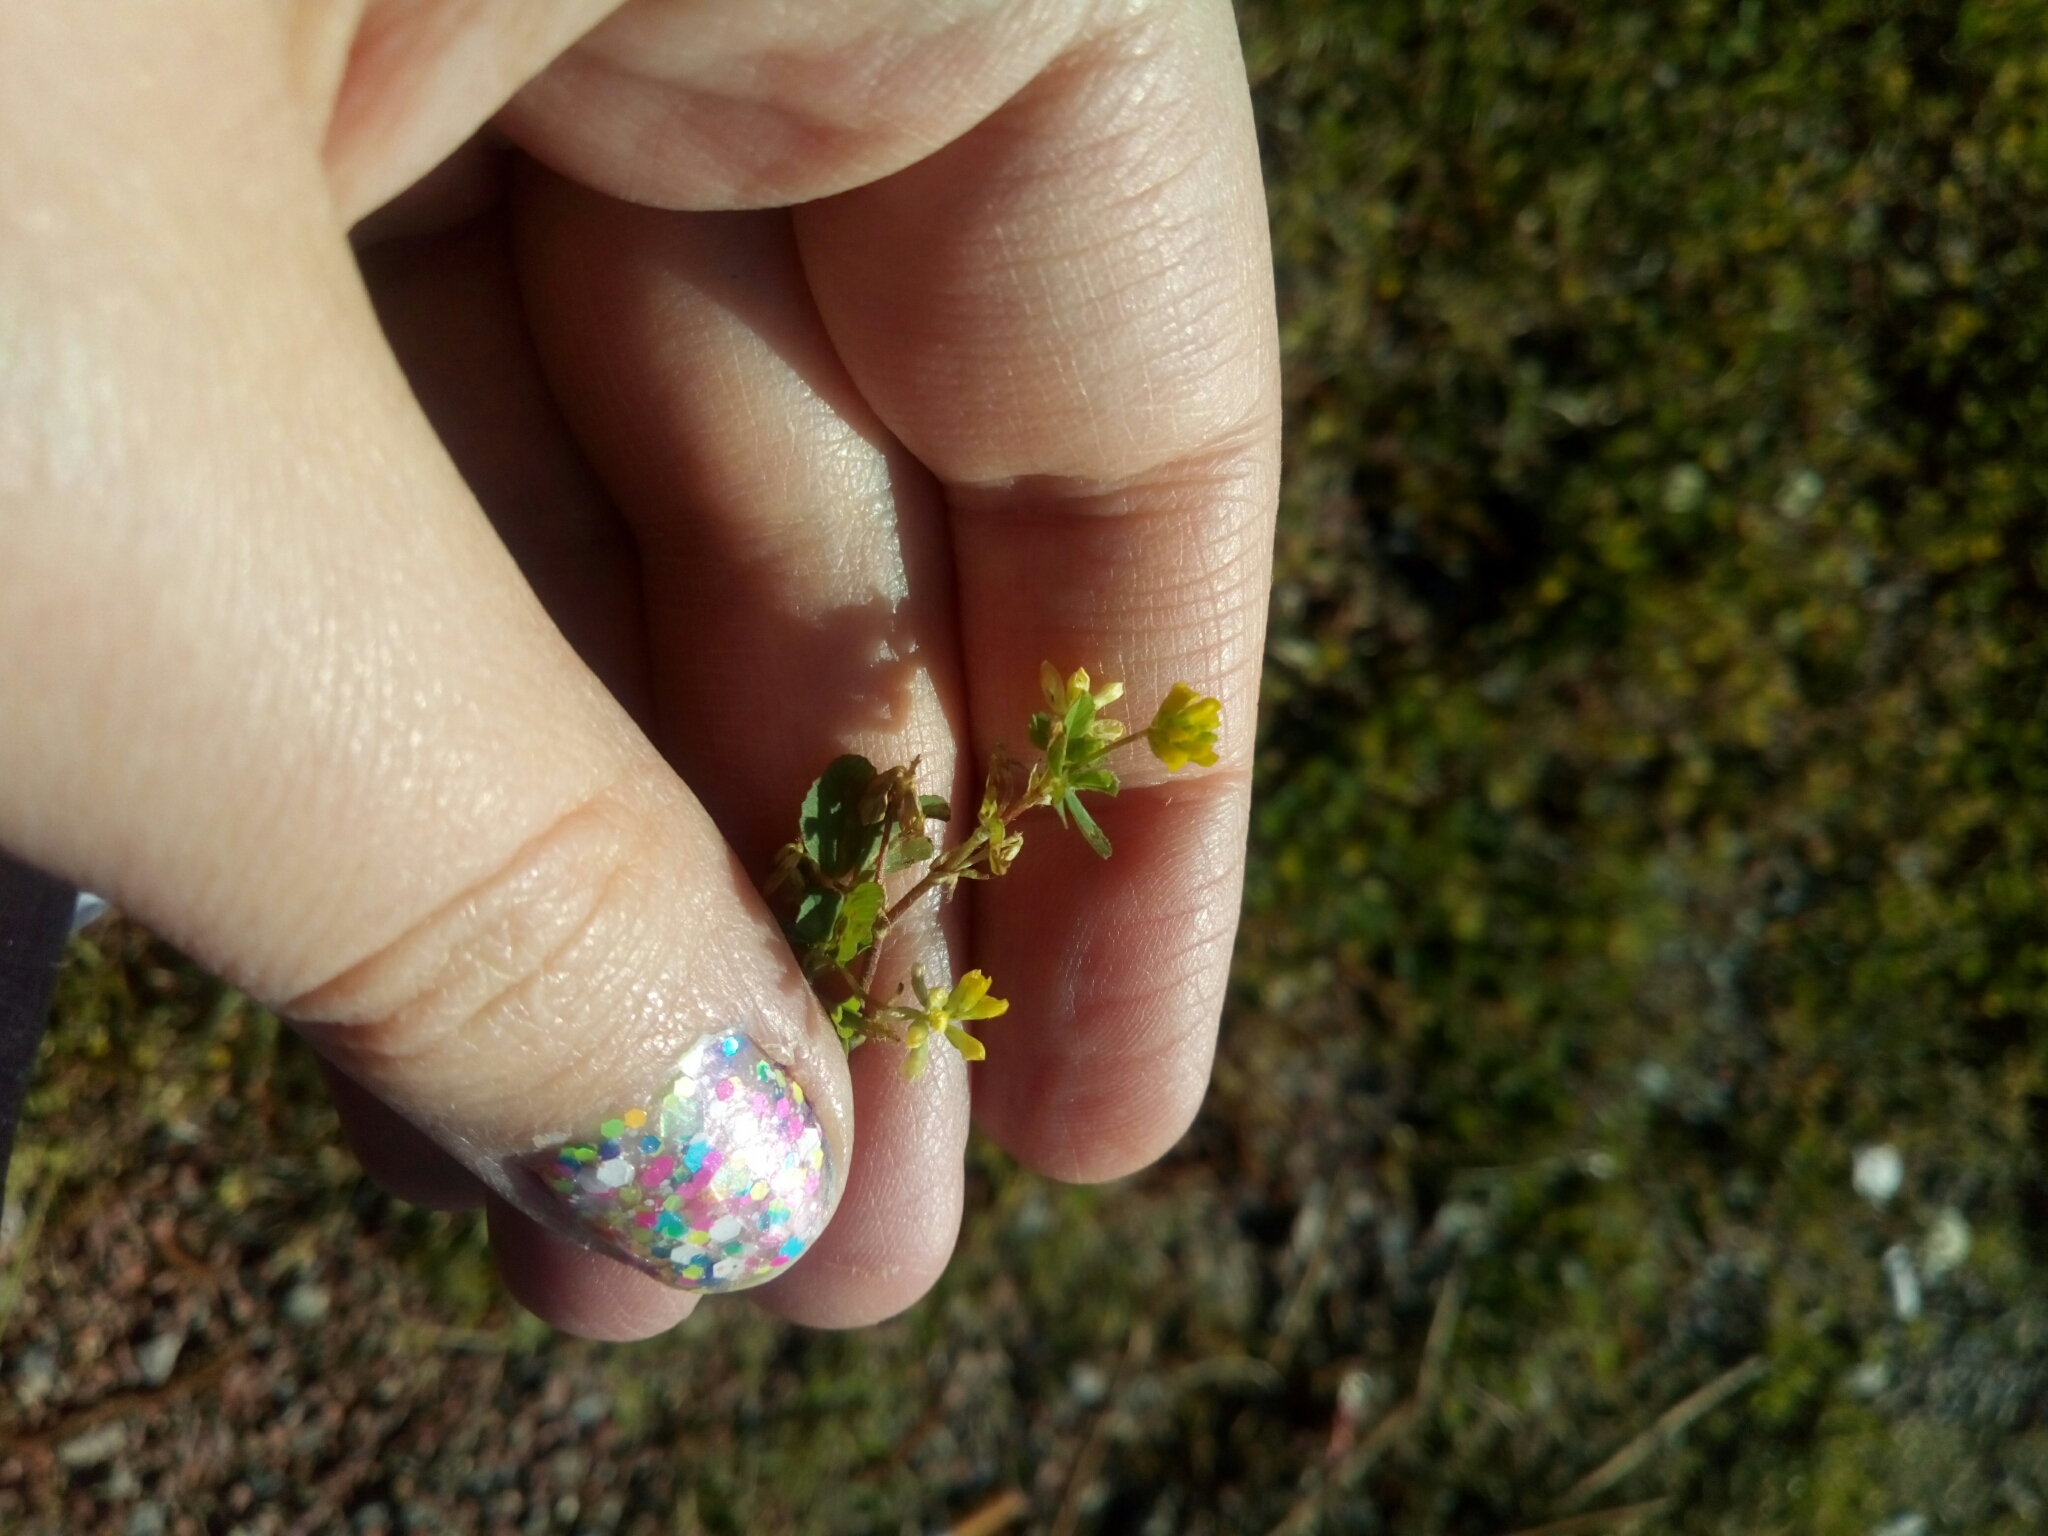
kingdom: Plantae
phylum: Tracheophyta
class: Magnoliopsida
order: Fabales
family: Fabaceae
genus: Trifolium
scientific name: Trifolium dubium
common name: Suckling clover
